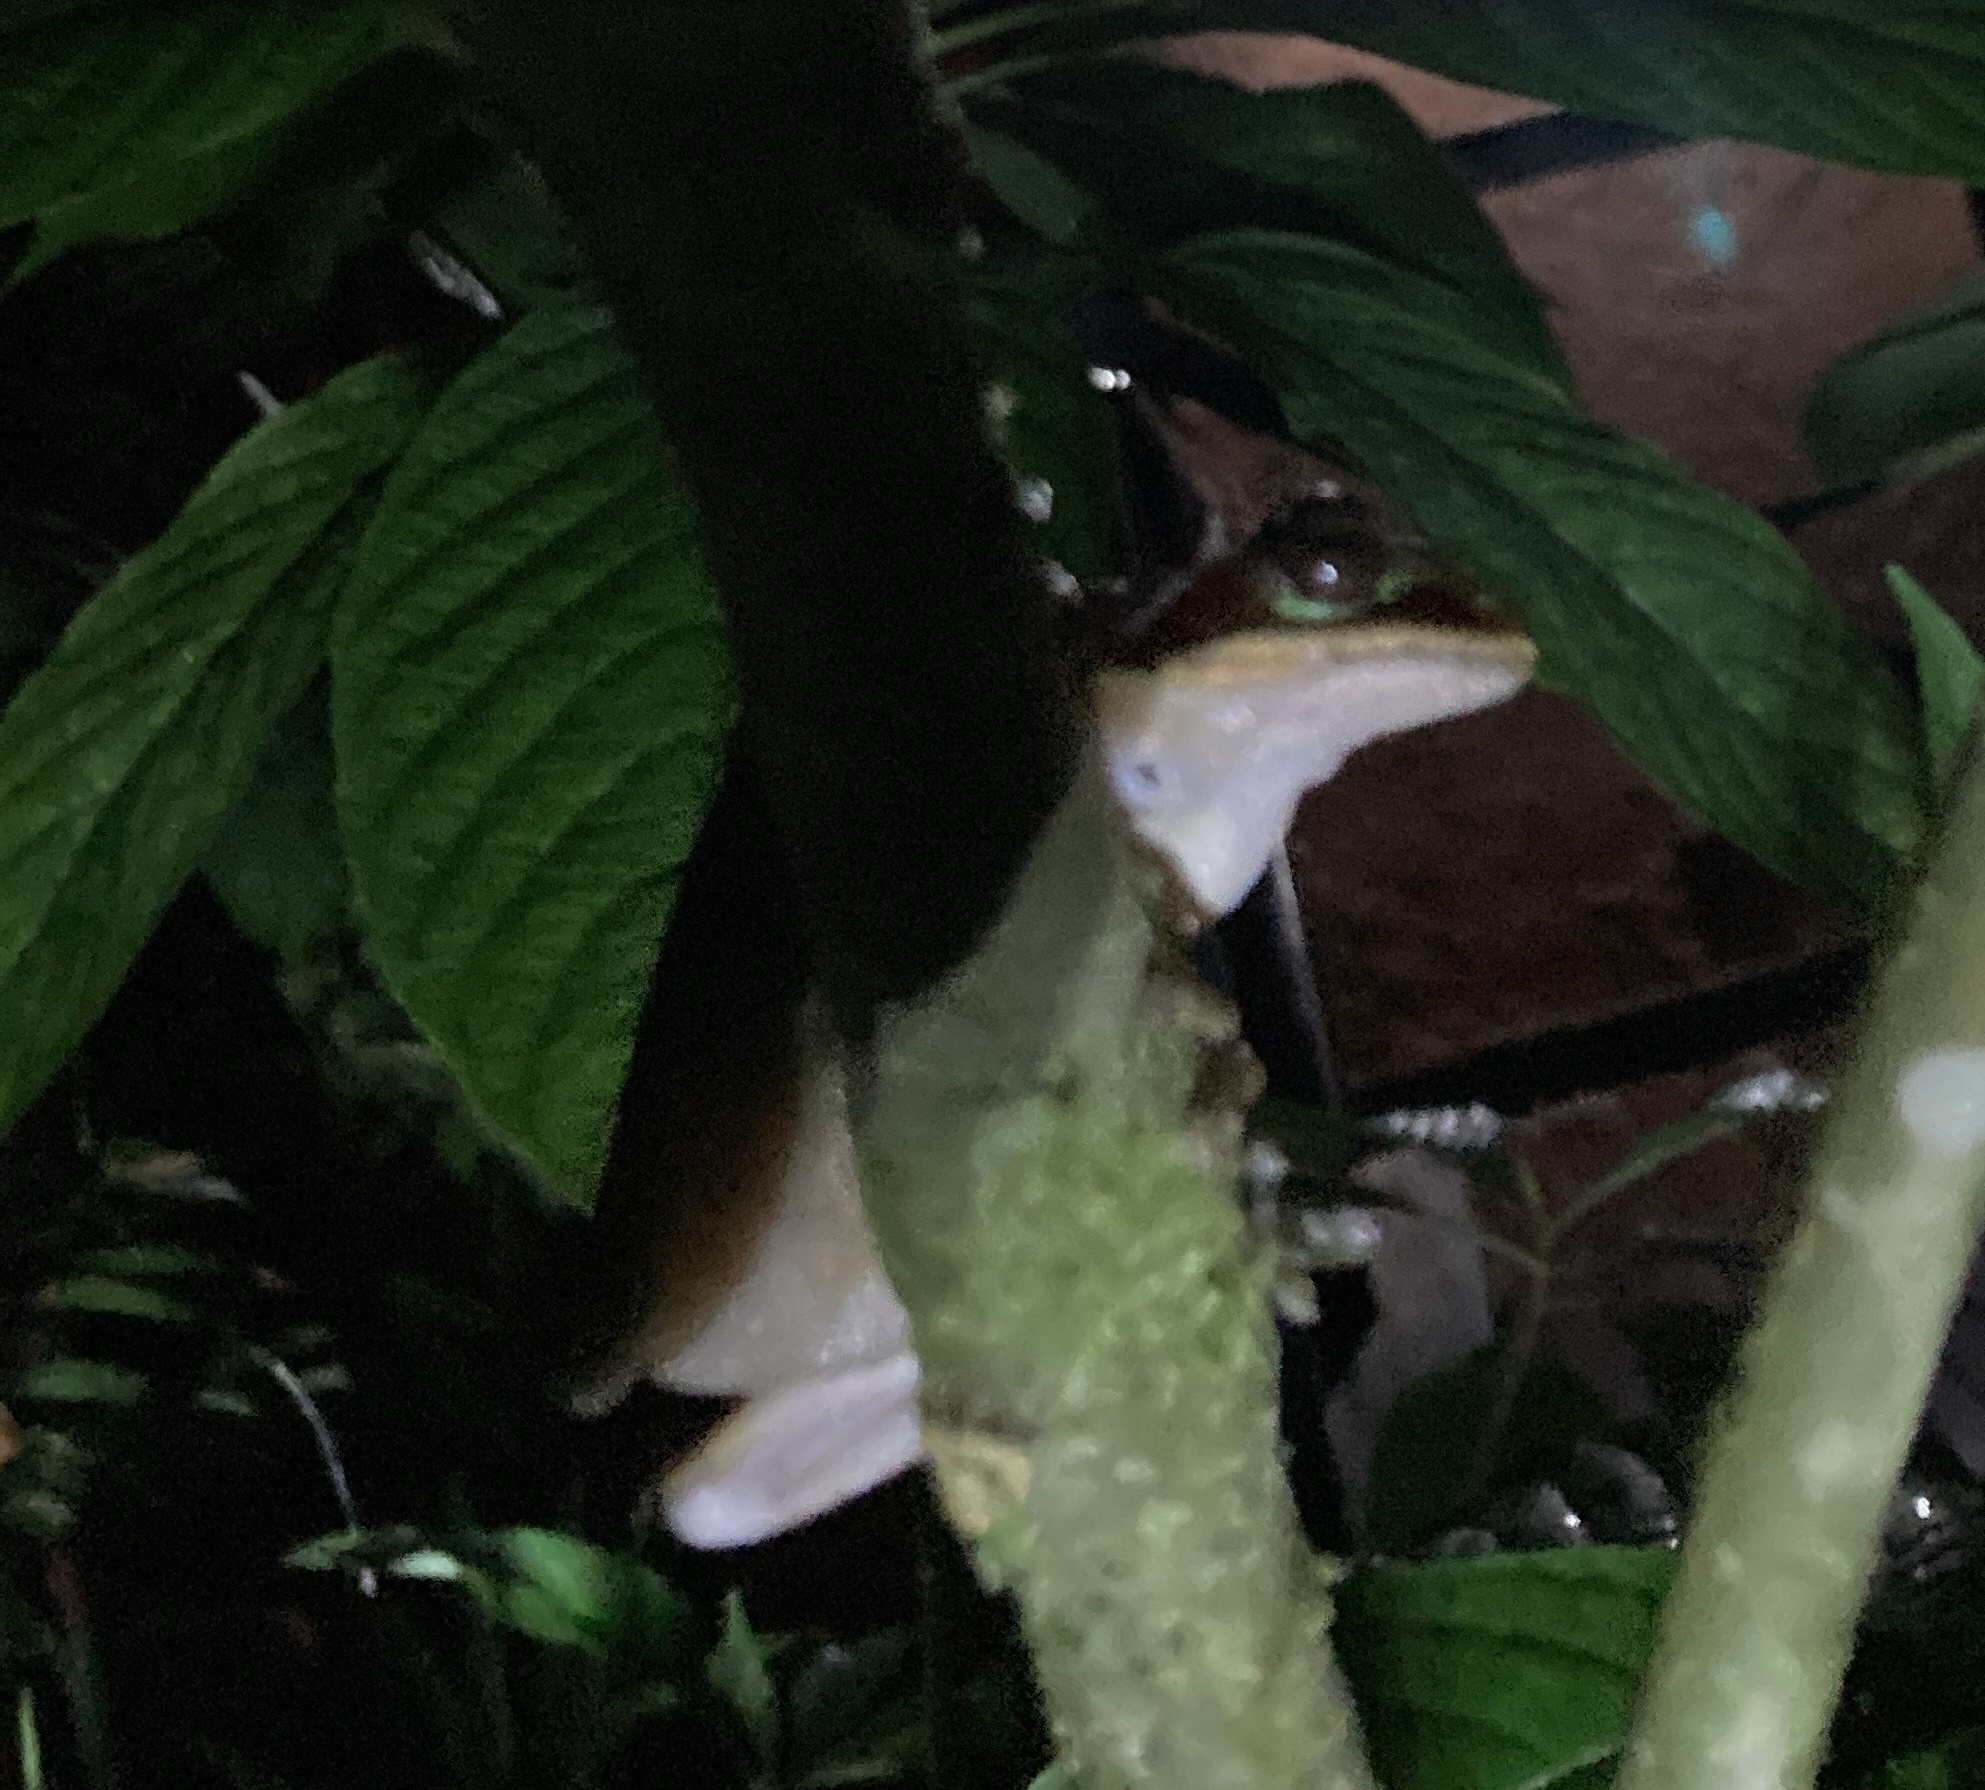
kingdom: Animalia
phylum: Chordata
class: Amphibia
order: Anura
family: Hylidae
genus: Smilisca
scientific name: Smilisca phaeota
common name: Central american smilisca
